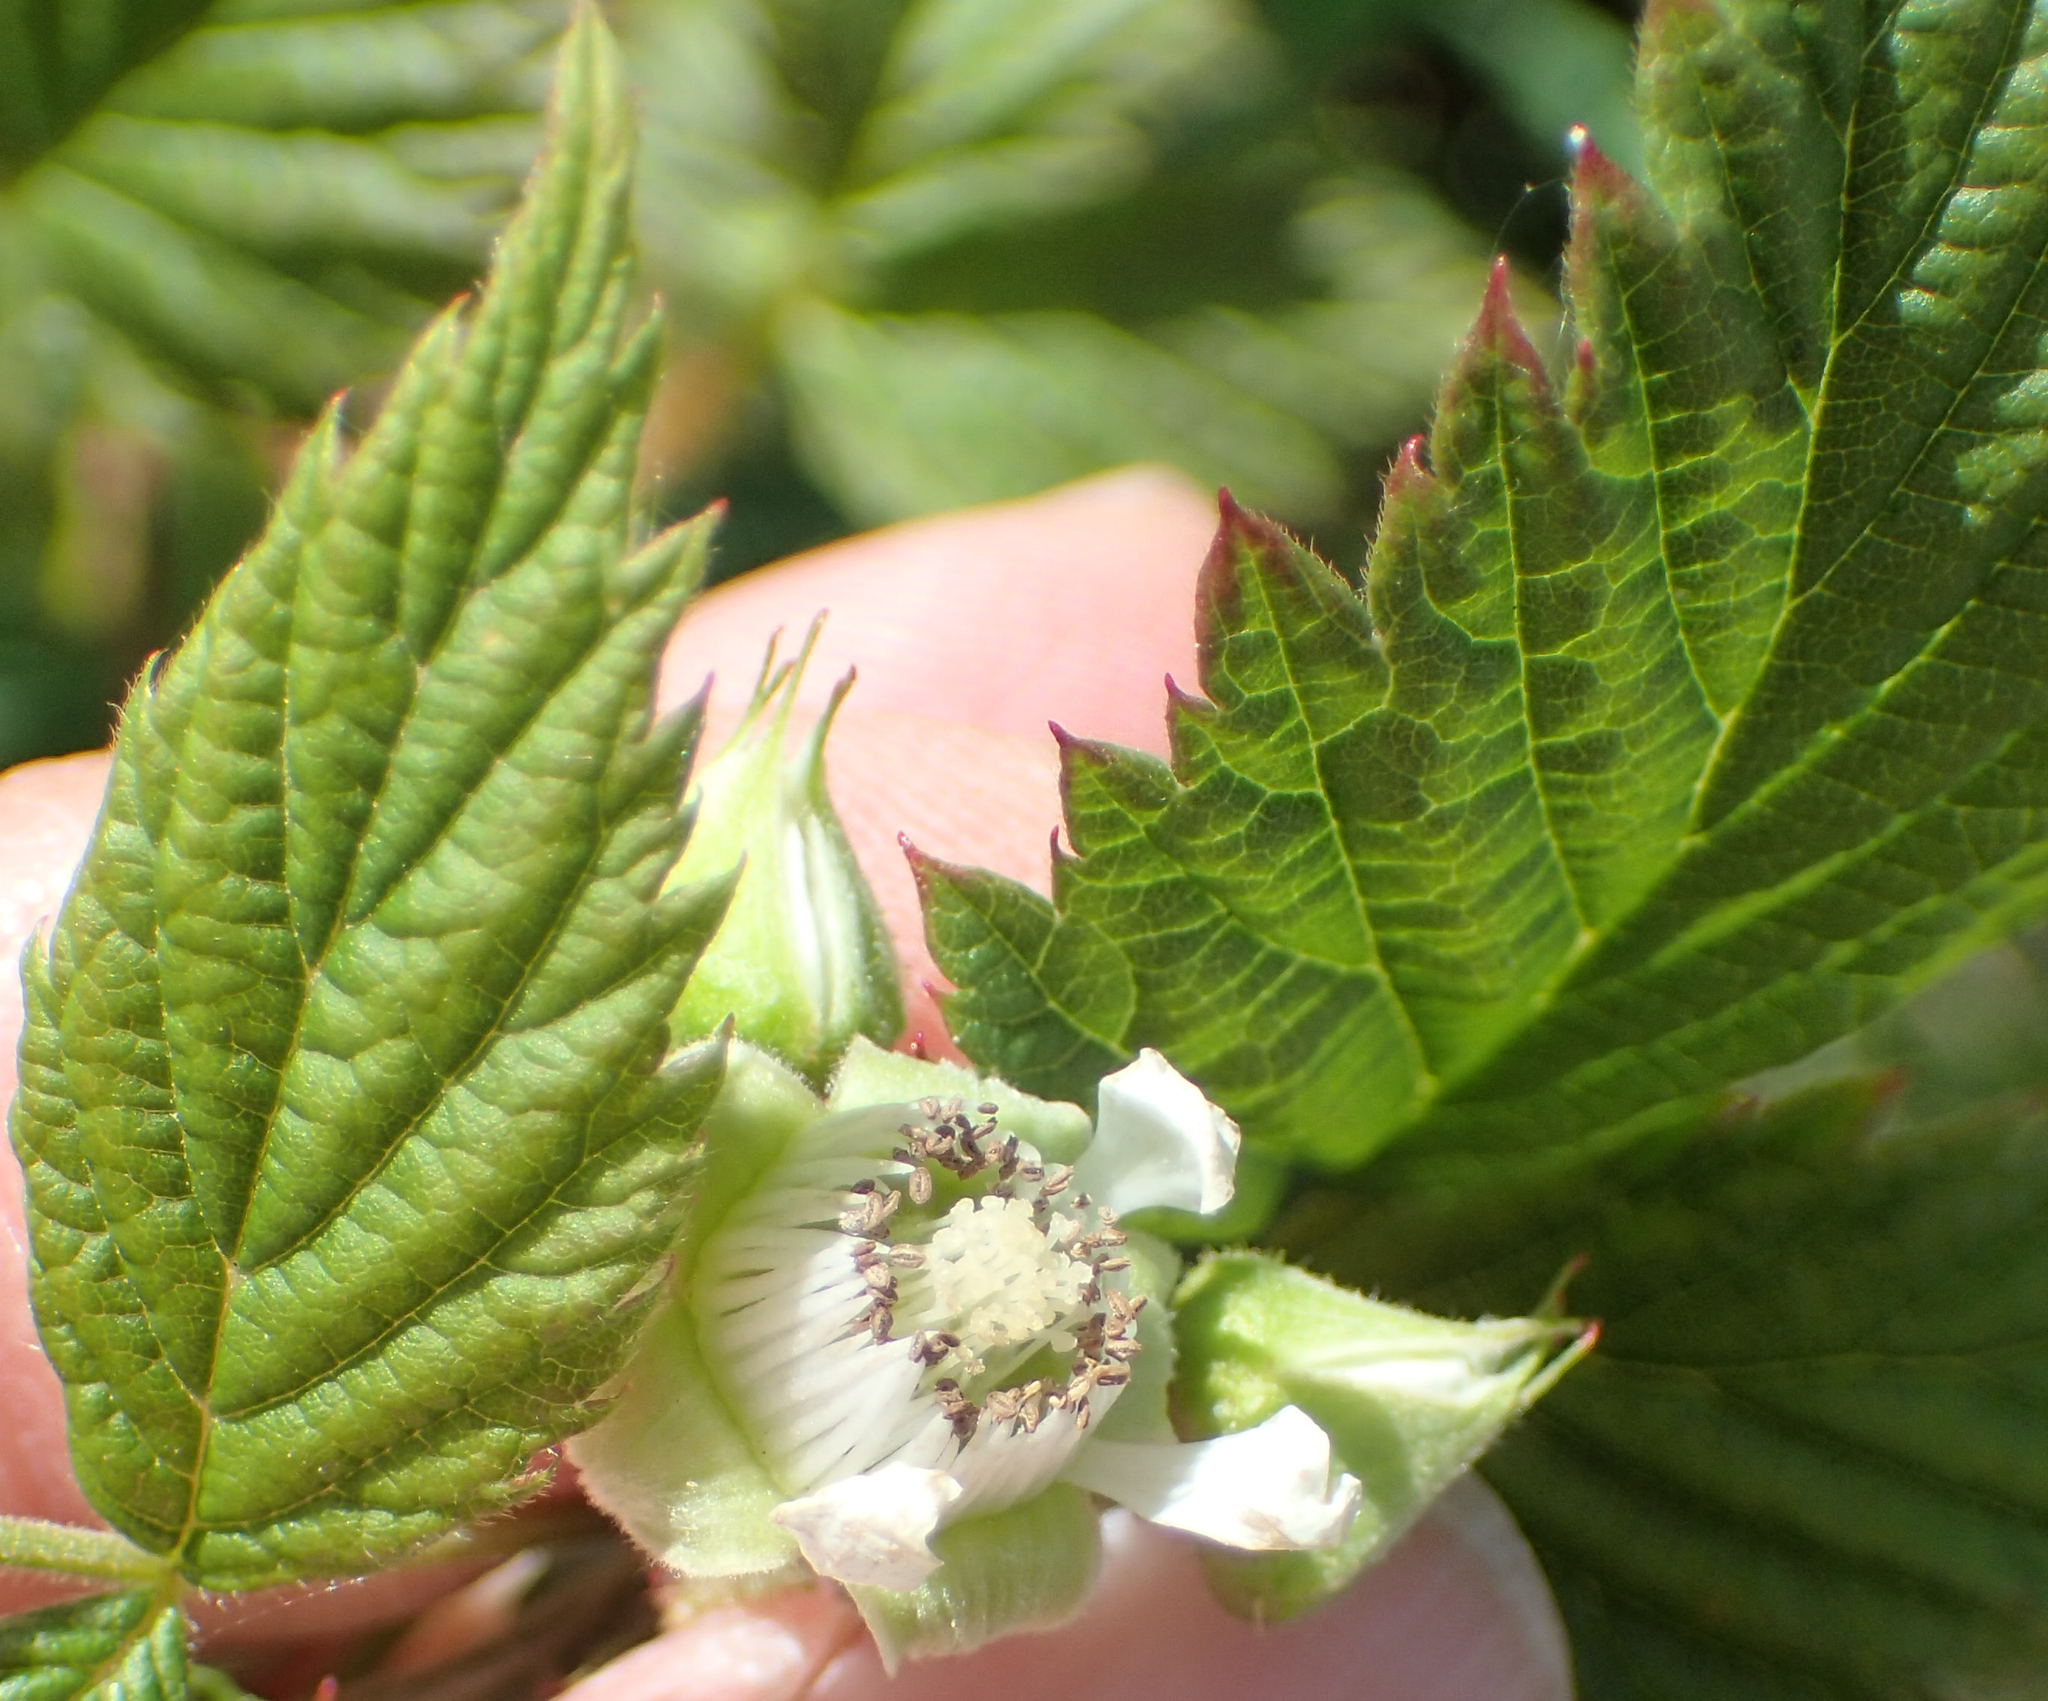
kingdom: Plantae
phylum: Tracheophyta
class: Magnoliopsida
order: Rosales
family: Rosaceae
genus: Rubus
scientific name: Rubus spectabilis
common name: Salmonberry
